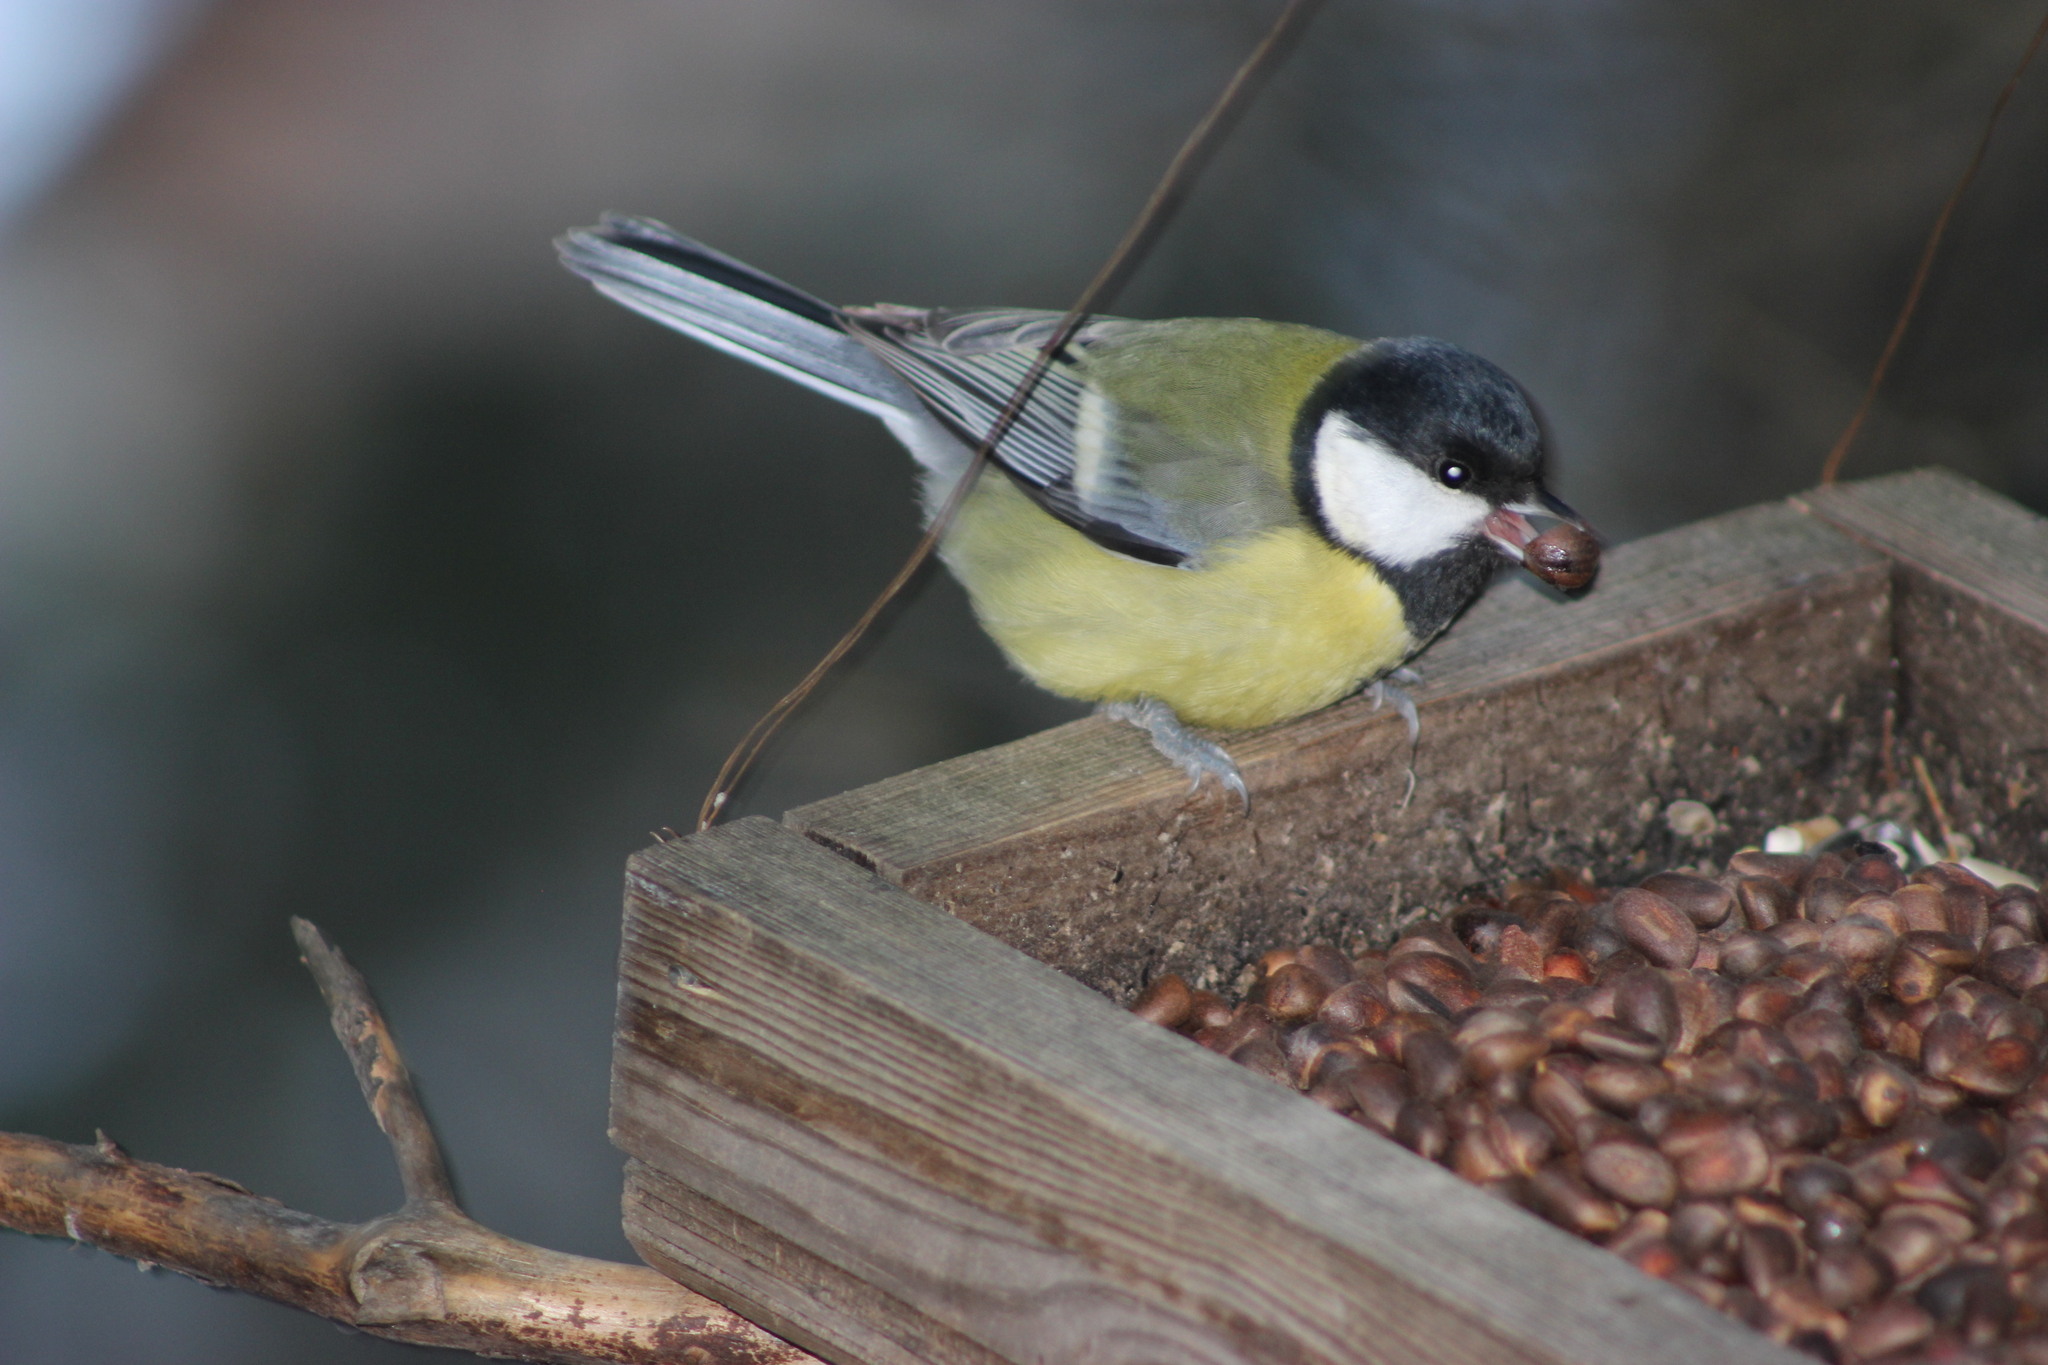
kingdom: Animalia
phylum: Chordata
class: Aves
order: Passeriformes
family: Paridae
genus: Parus
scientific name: Parus major
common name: Great tit
